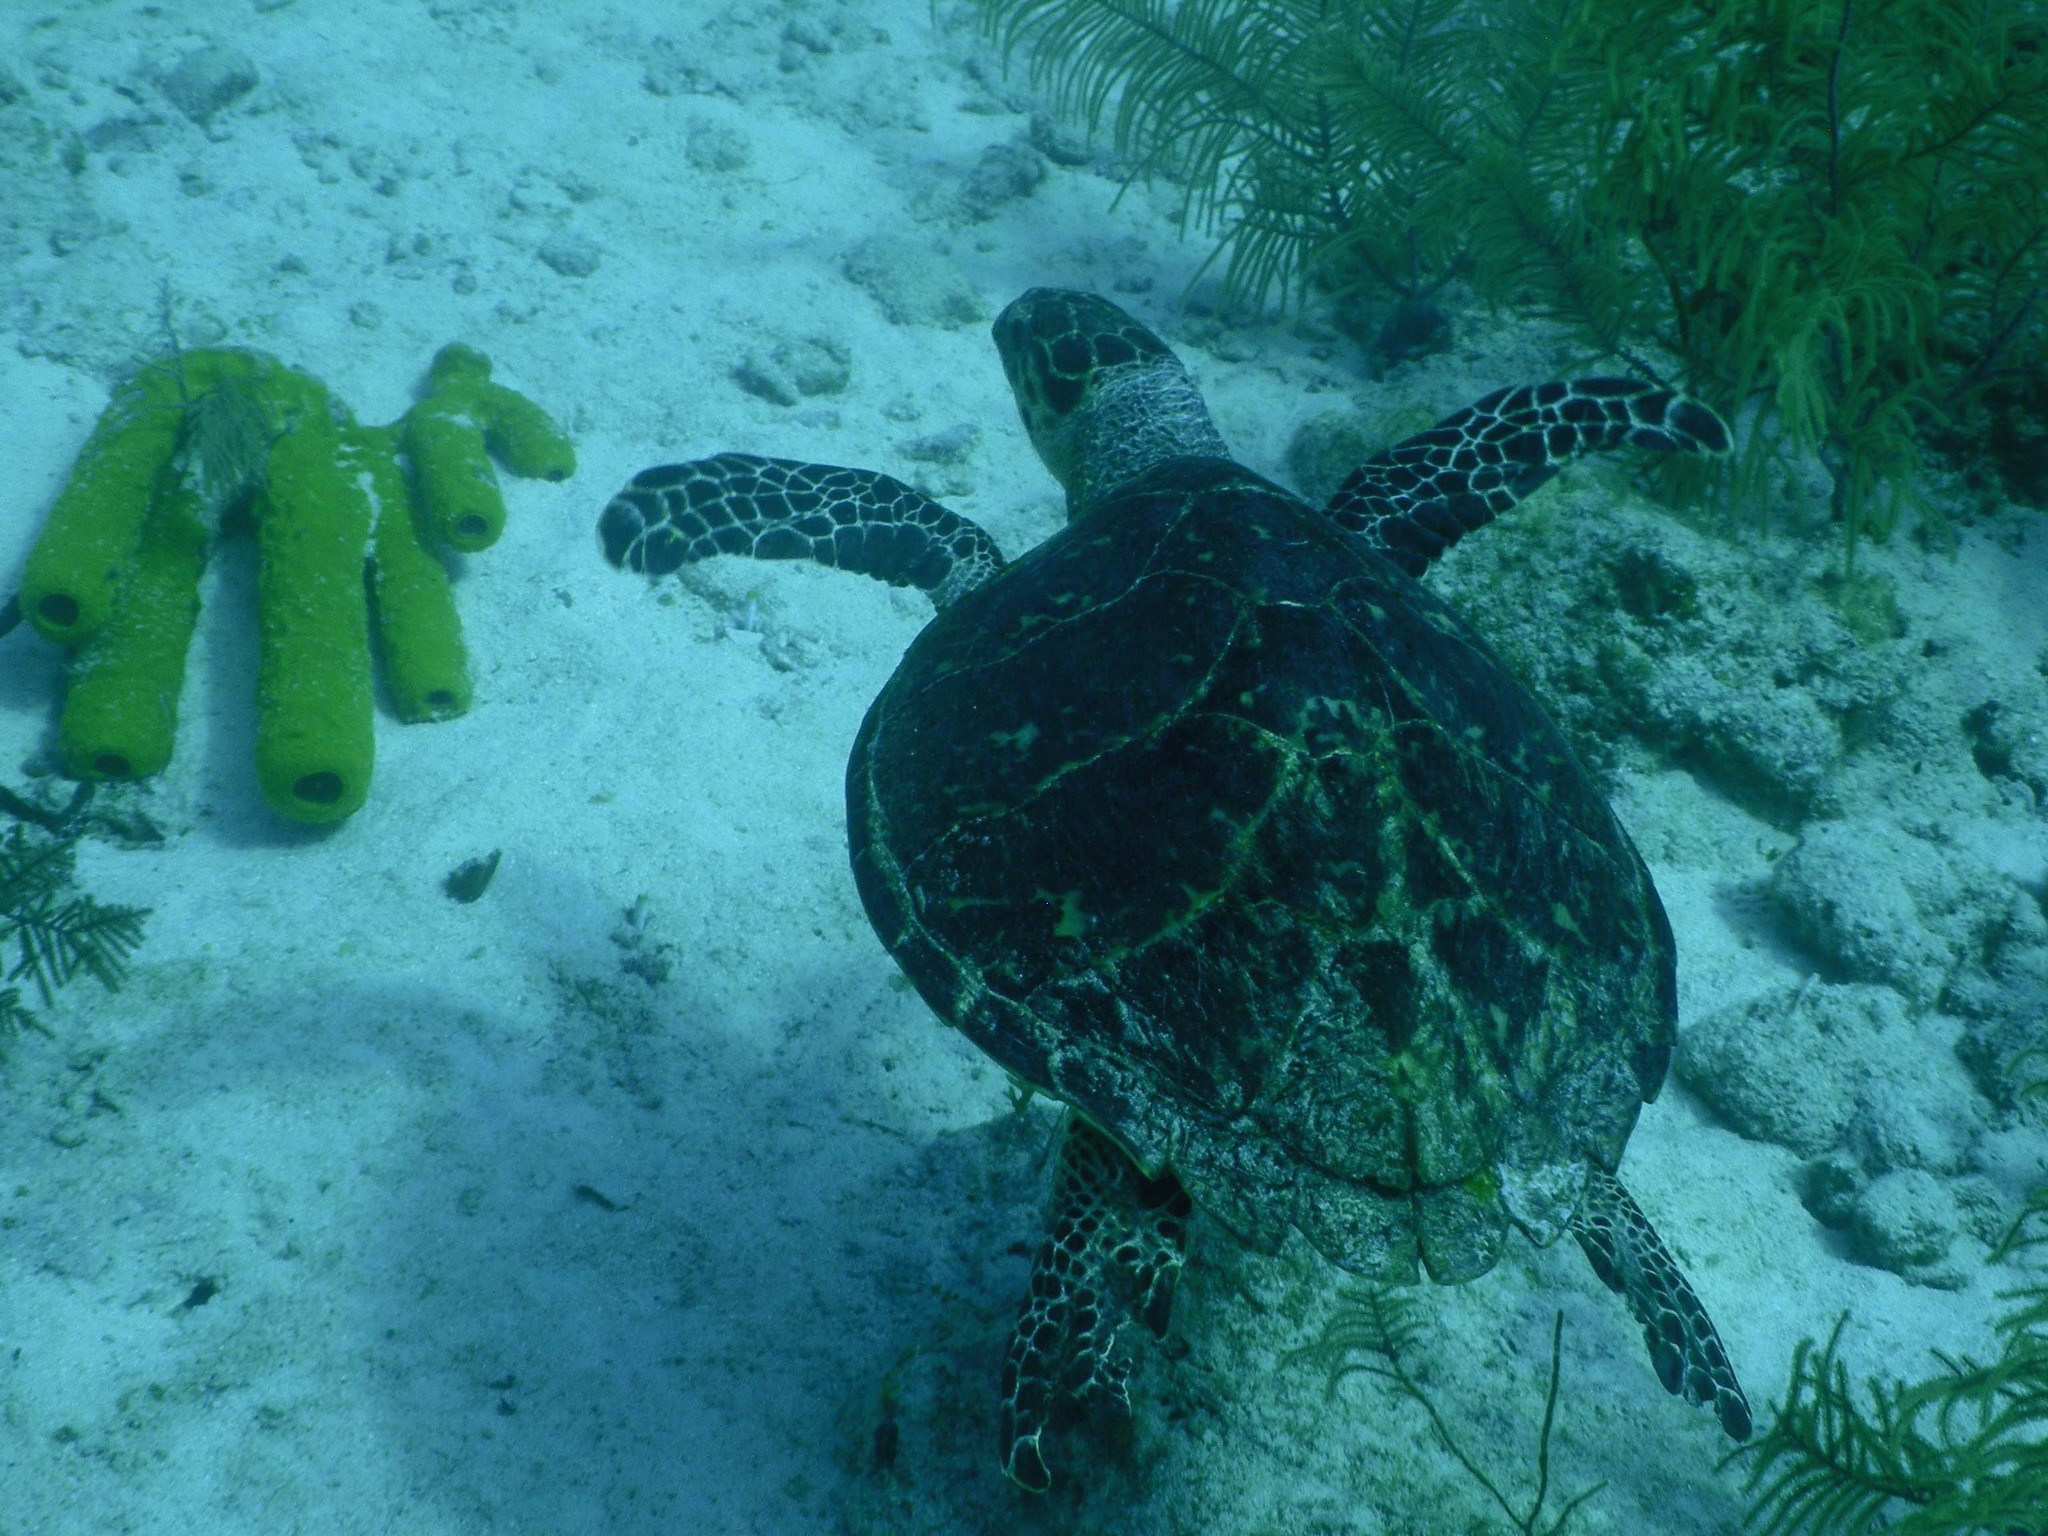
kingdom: Animalia
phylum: Chordata
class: Testudines
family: Cheloniidae
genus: Eretmochelys
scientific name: Eretmochelys imbricata
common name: Hawksbill turtle
